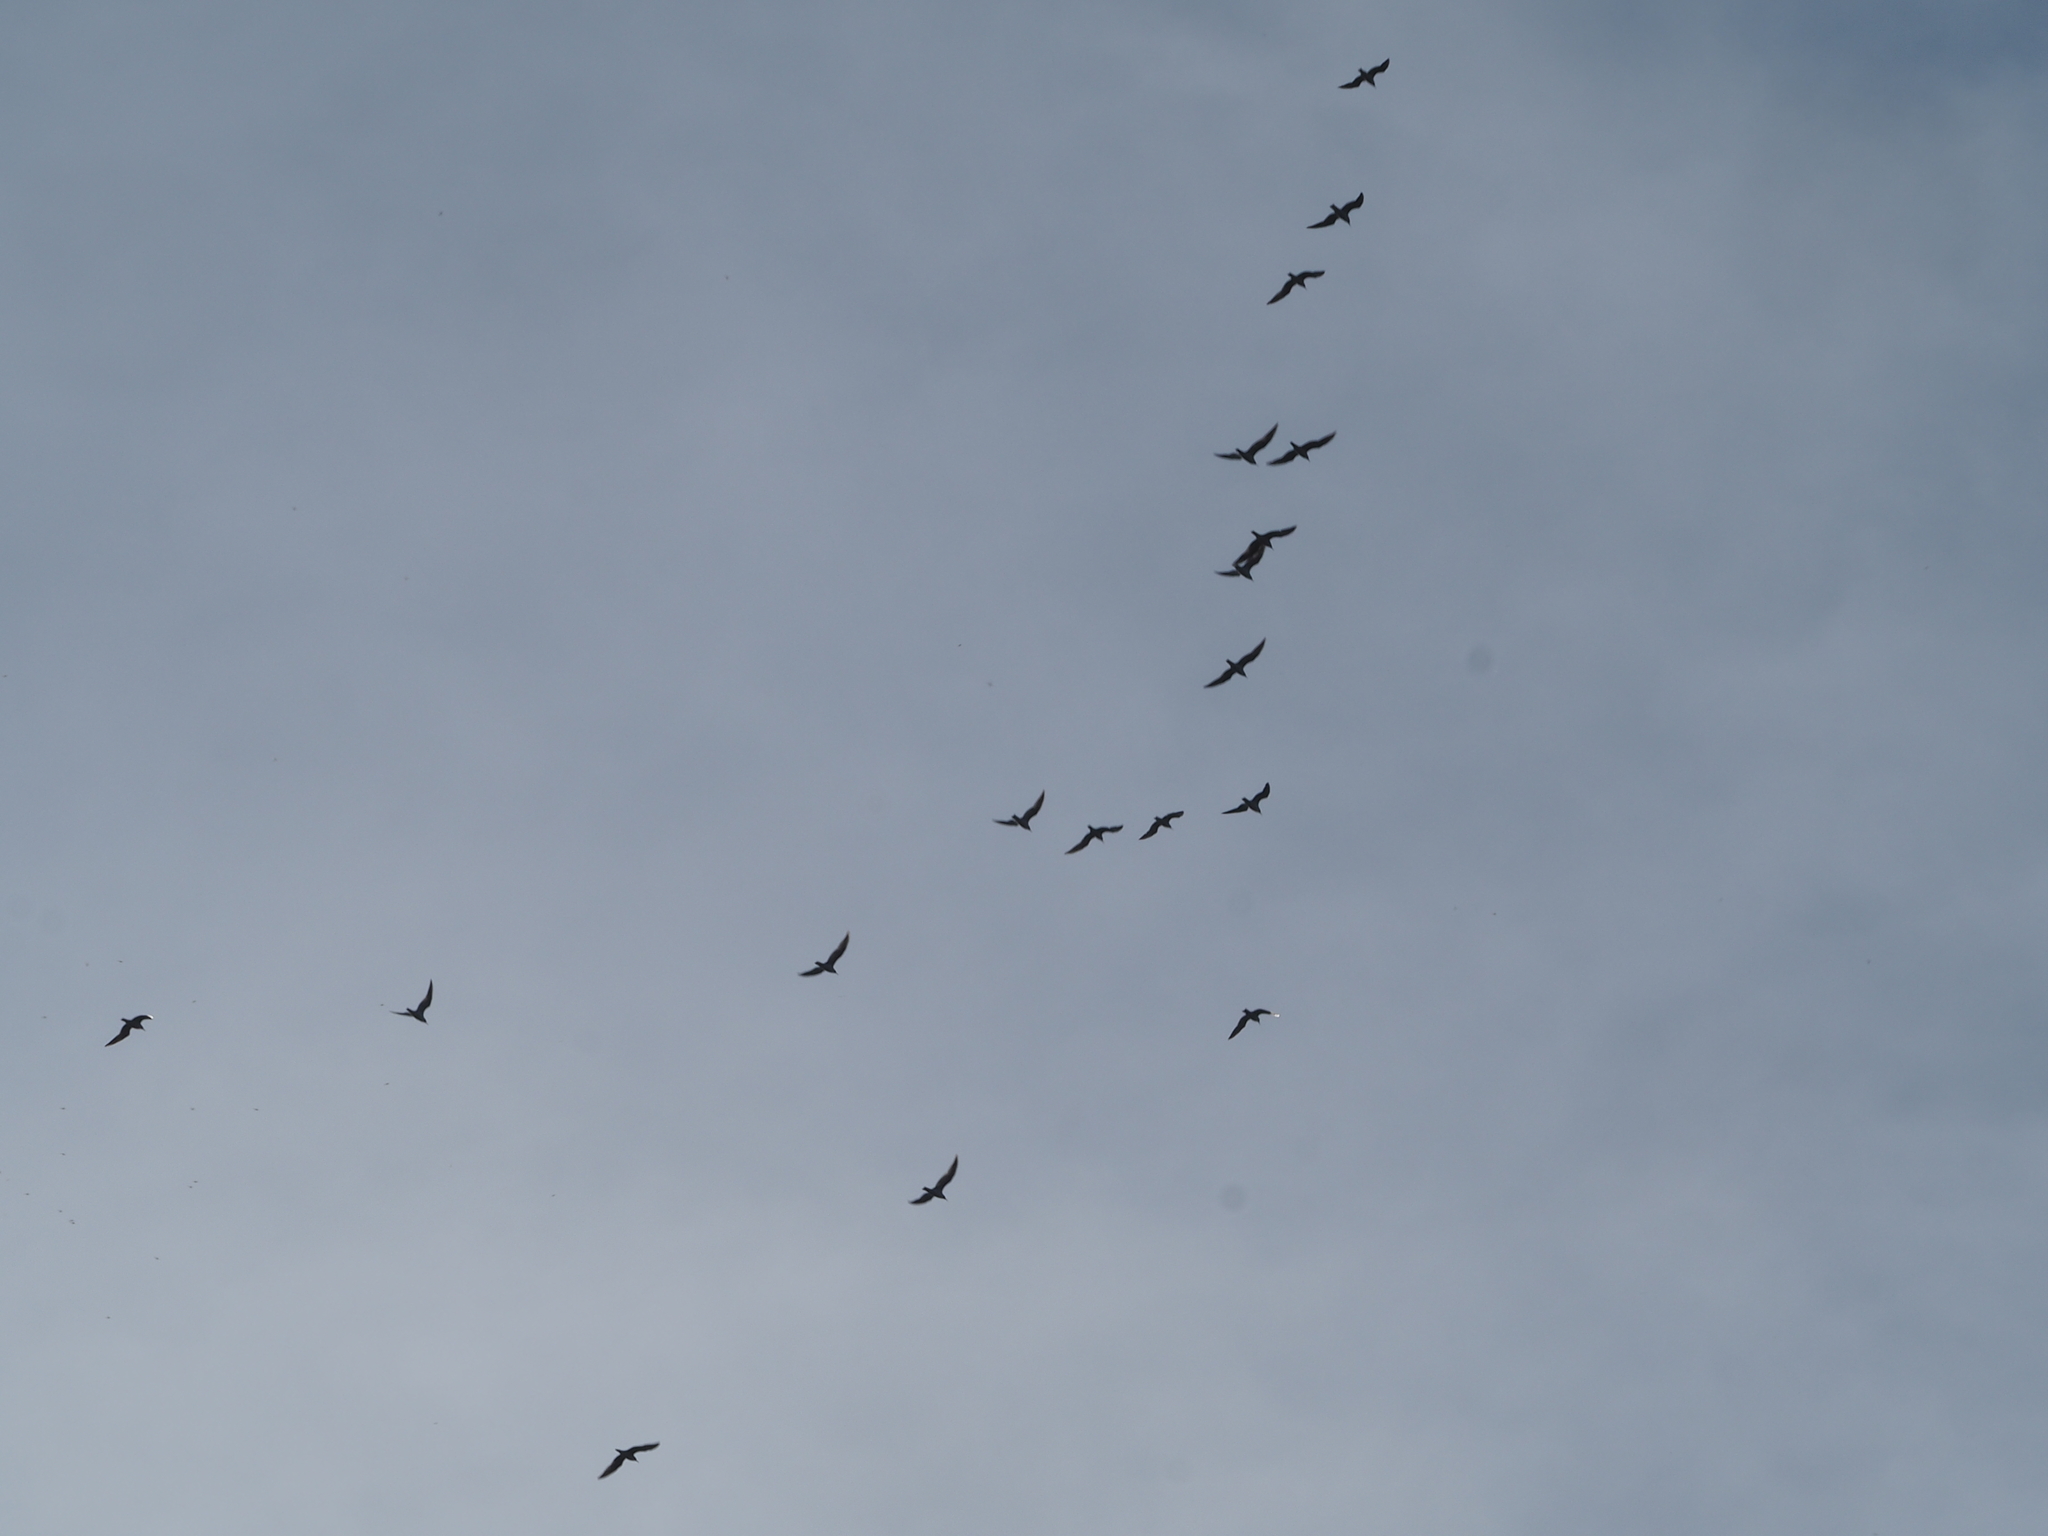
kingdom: Animalia
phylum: Chordata
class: Aves
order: Charadriiformes
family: Laridae
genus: Chroicocephalus
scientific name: Chroicocephalus ridibundus
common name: Black-headed gull
